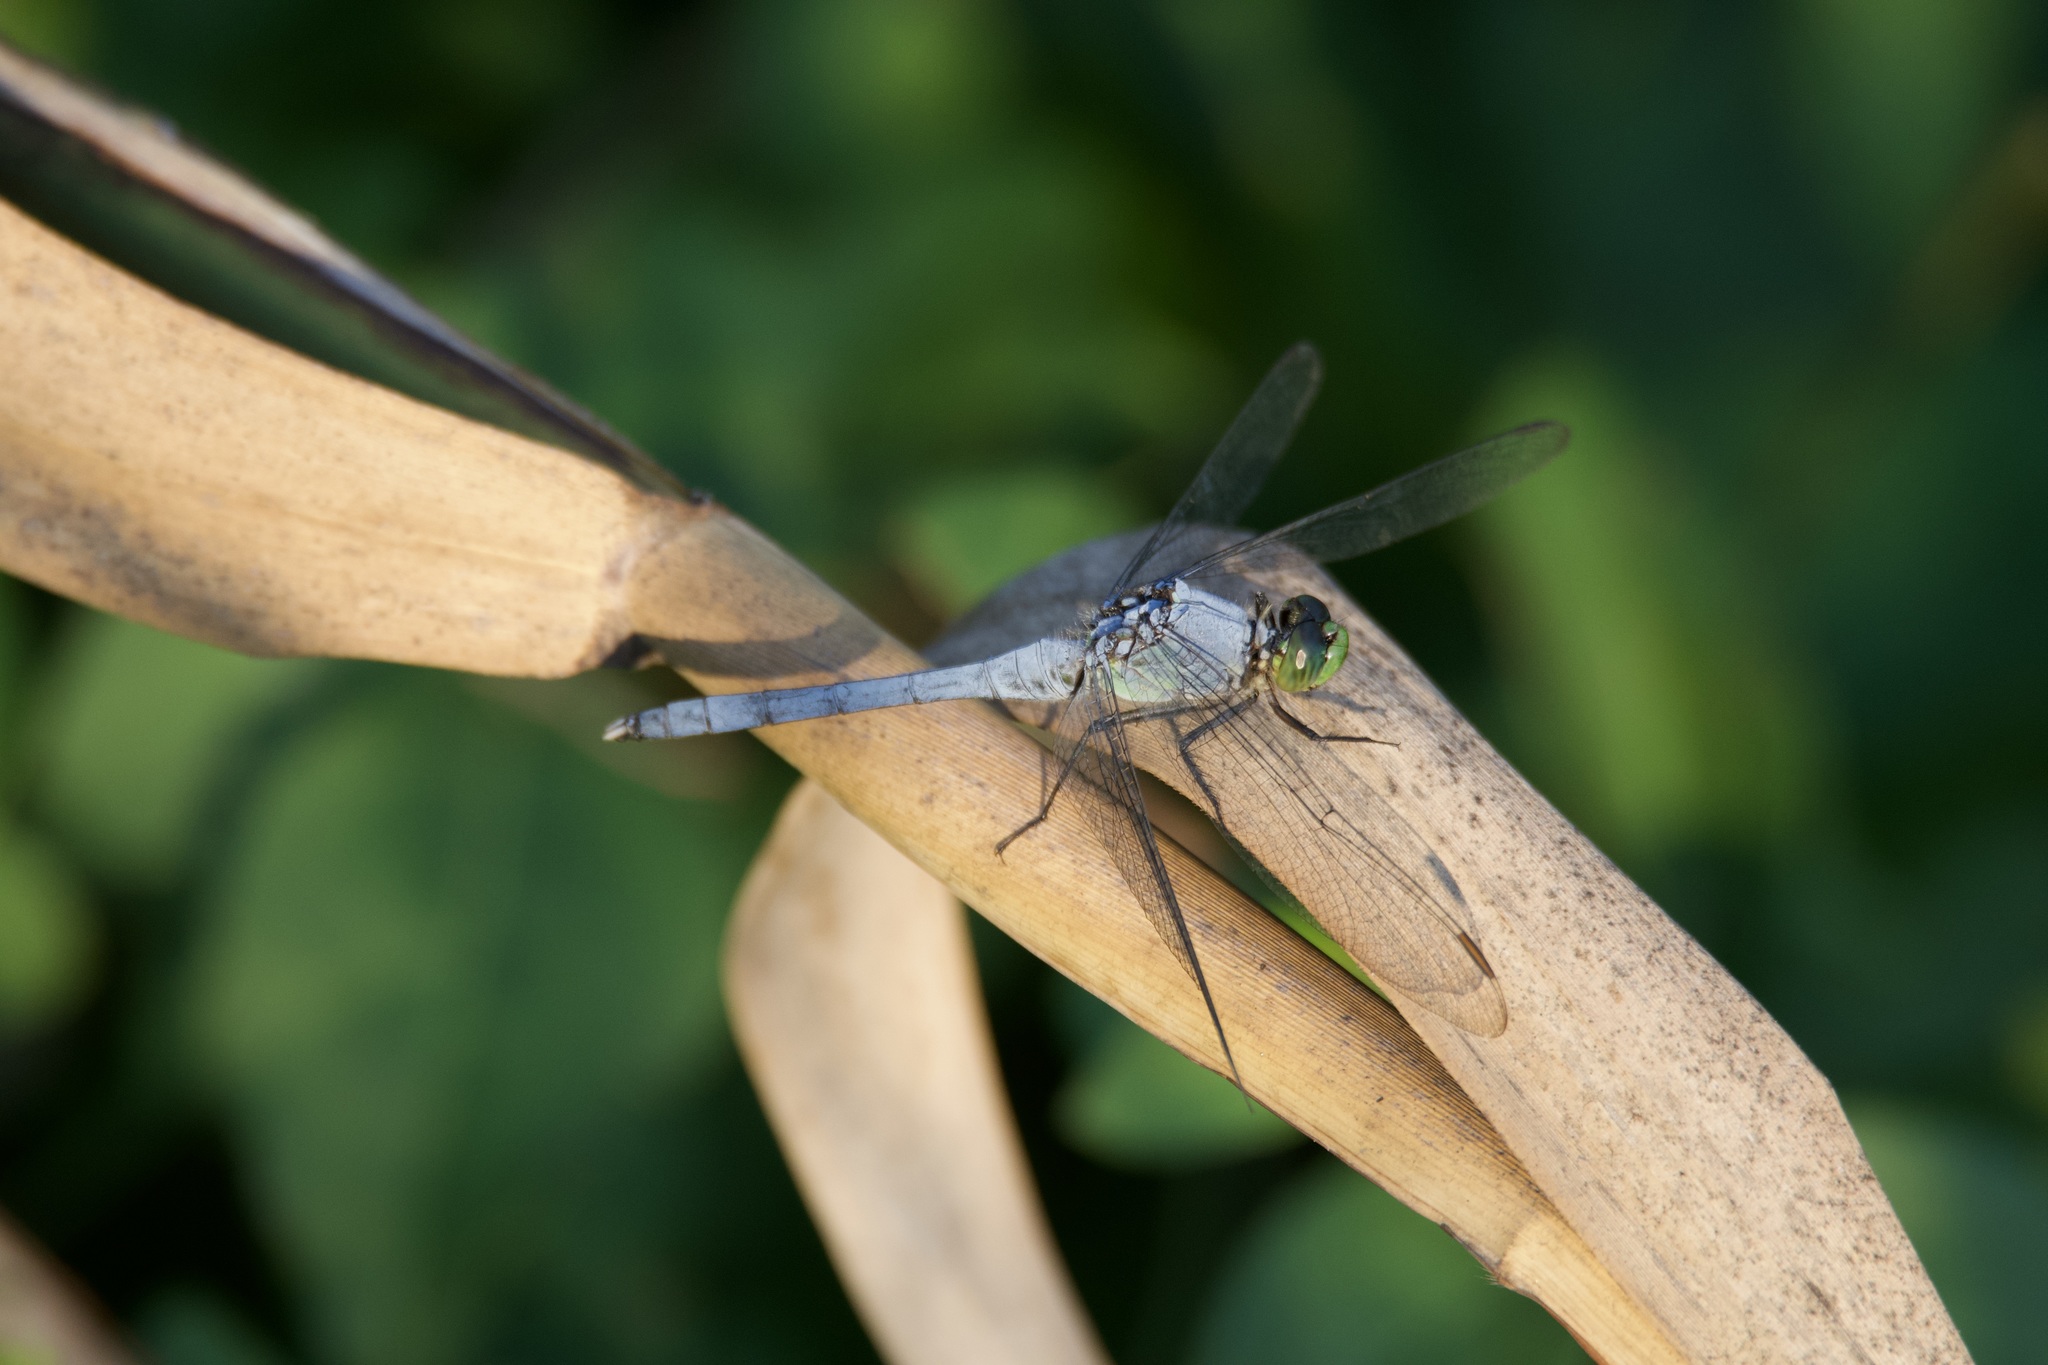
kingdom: Animalia
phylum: Arthropoda
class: Insecta
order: Odonata
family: Libellulidae
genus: Erythemis
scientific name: Erythemis simplicicollis
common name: Eastern pondhawk
